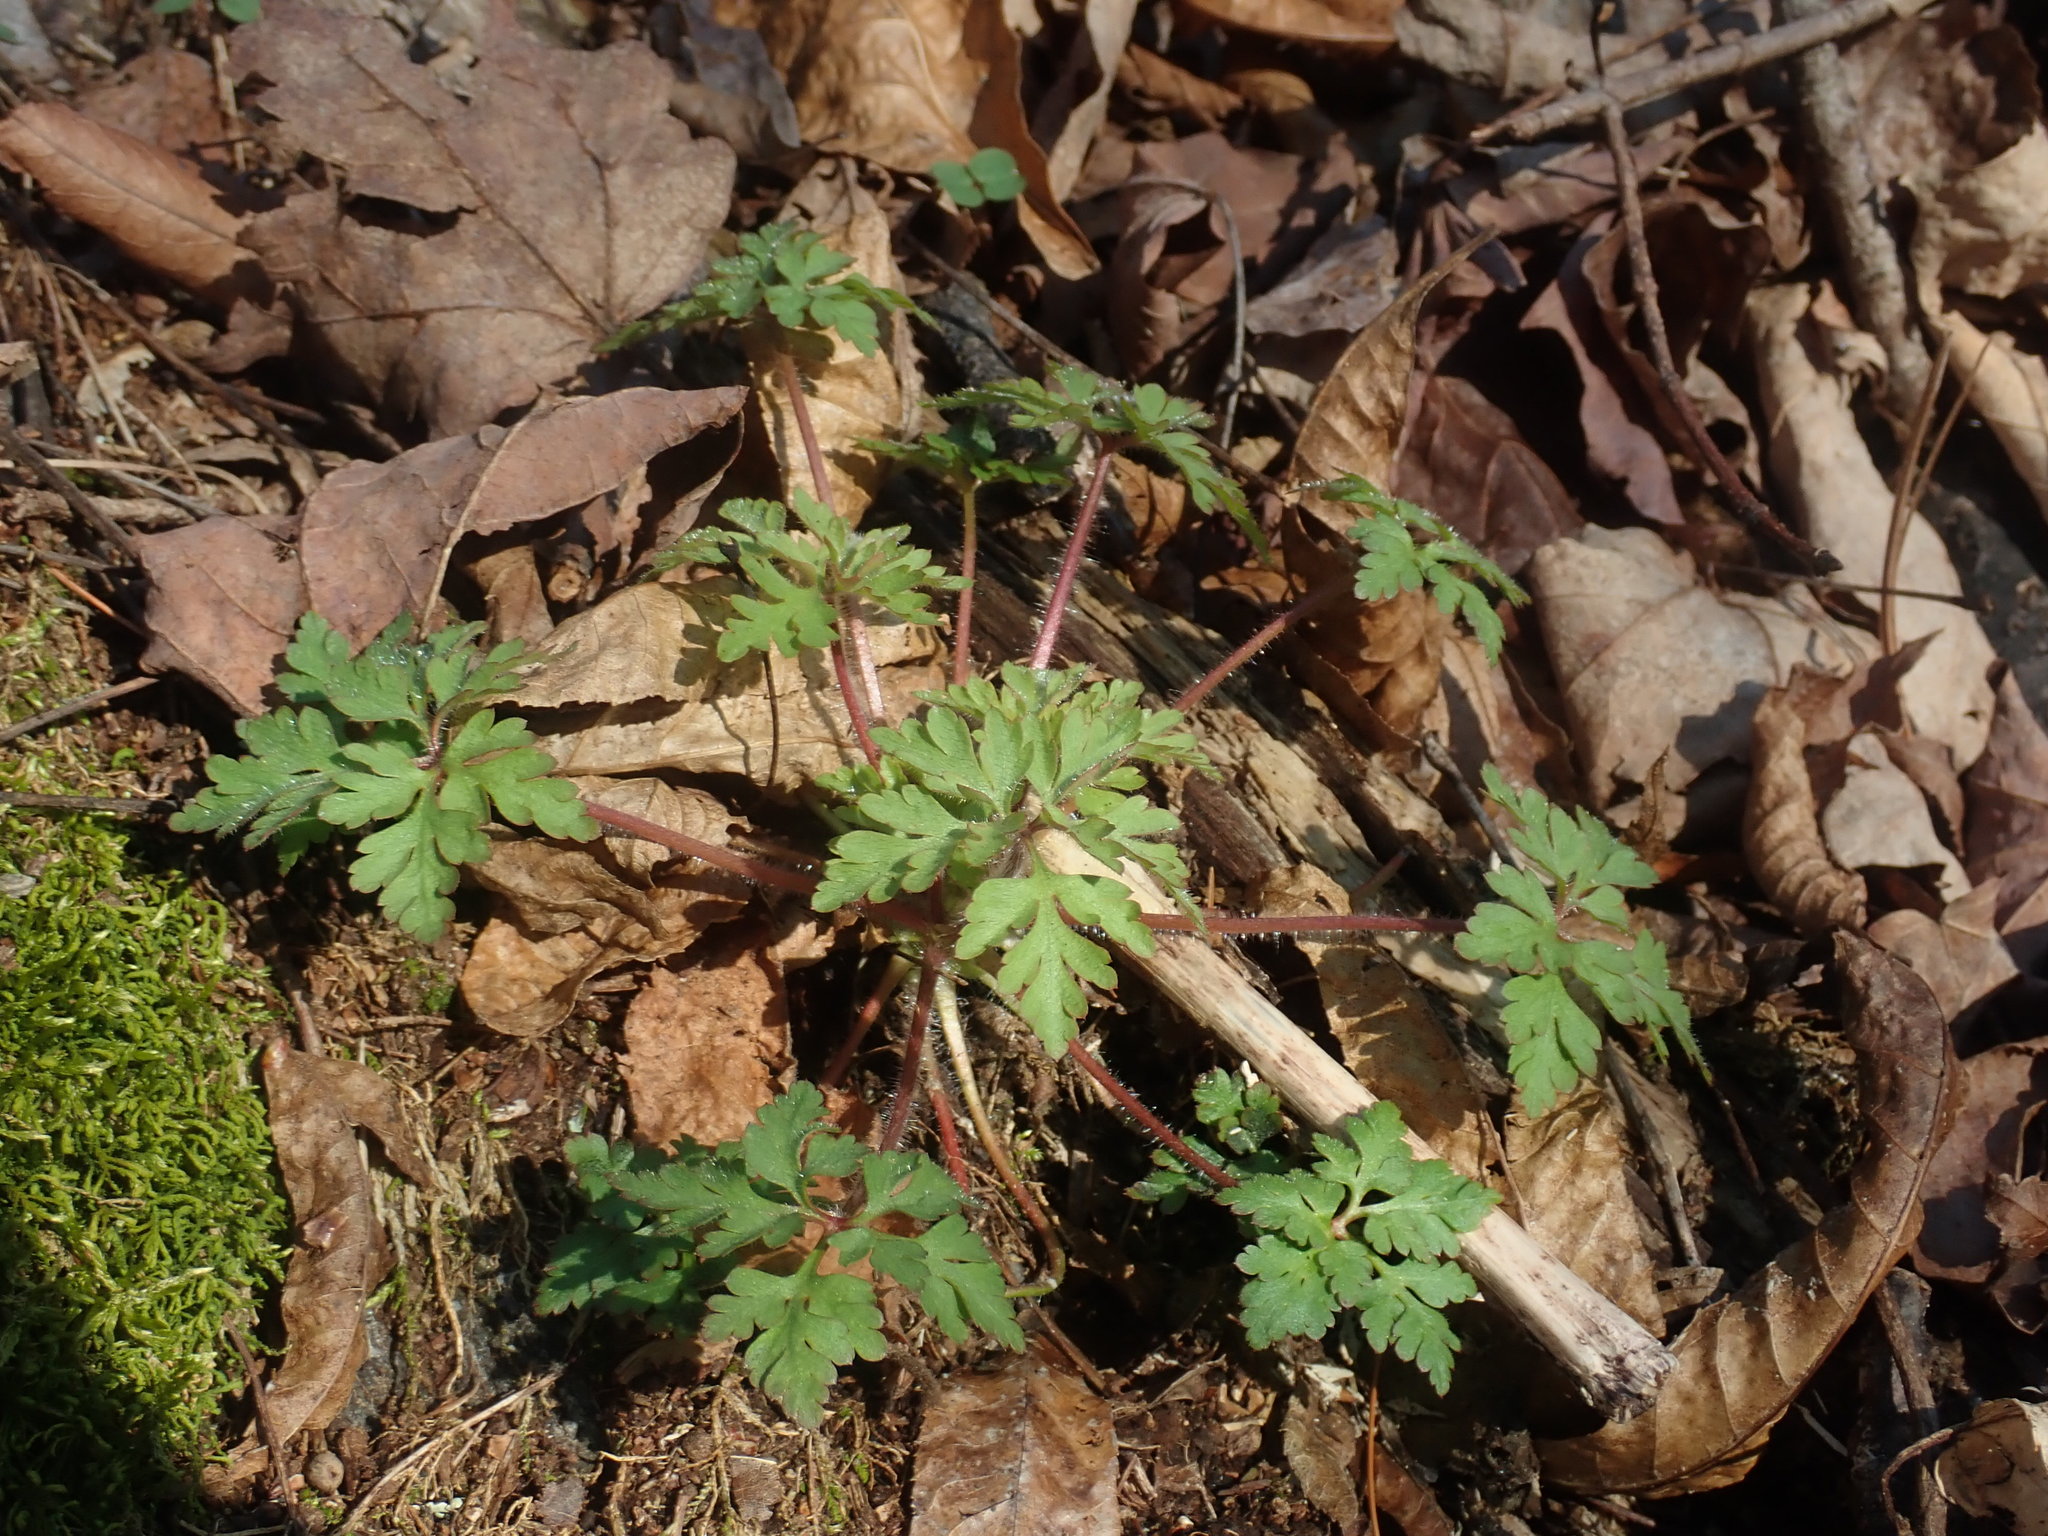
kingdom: Plantae
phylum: Tracheophyta
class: Magnoliopsida
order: Geraniales
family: Geraniaceae
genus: Geranium
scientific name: Geranium robertianum
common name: Herb-robert
